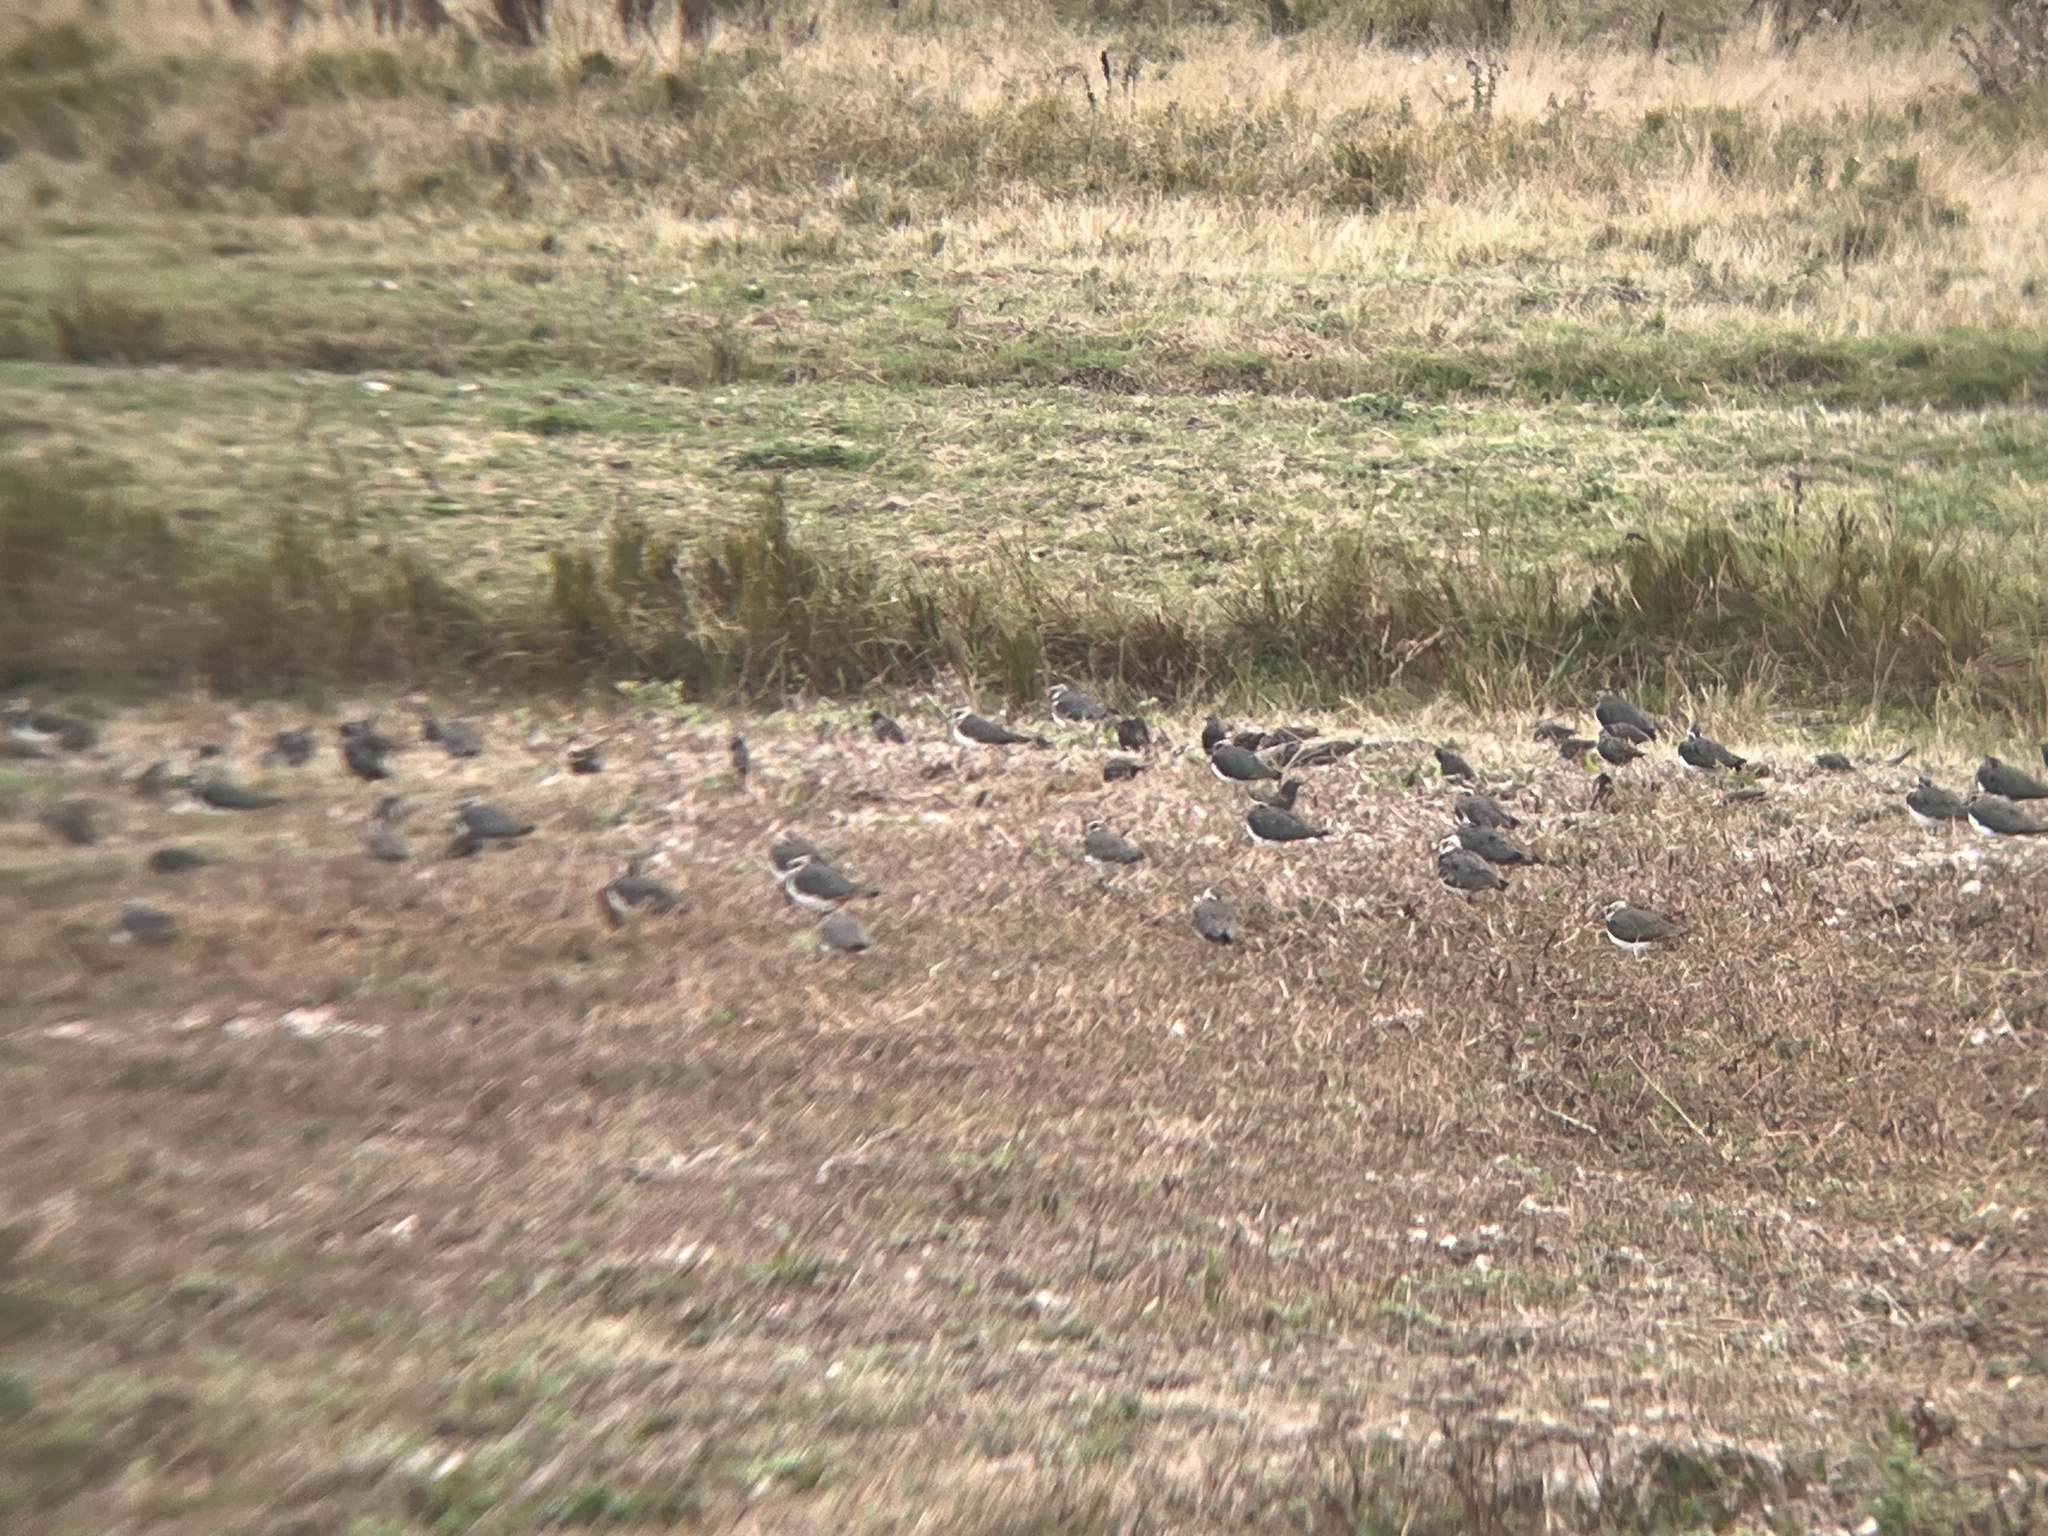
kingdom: Animalia
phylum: Chordata
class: Aves
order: Charadriiformes
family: Charadriidae
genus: Vanellus
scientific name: Vanellus vanellus
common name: Northern lapwing
